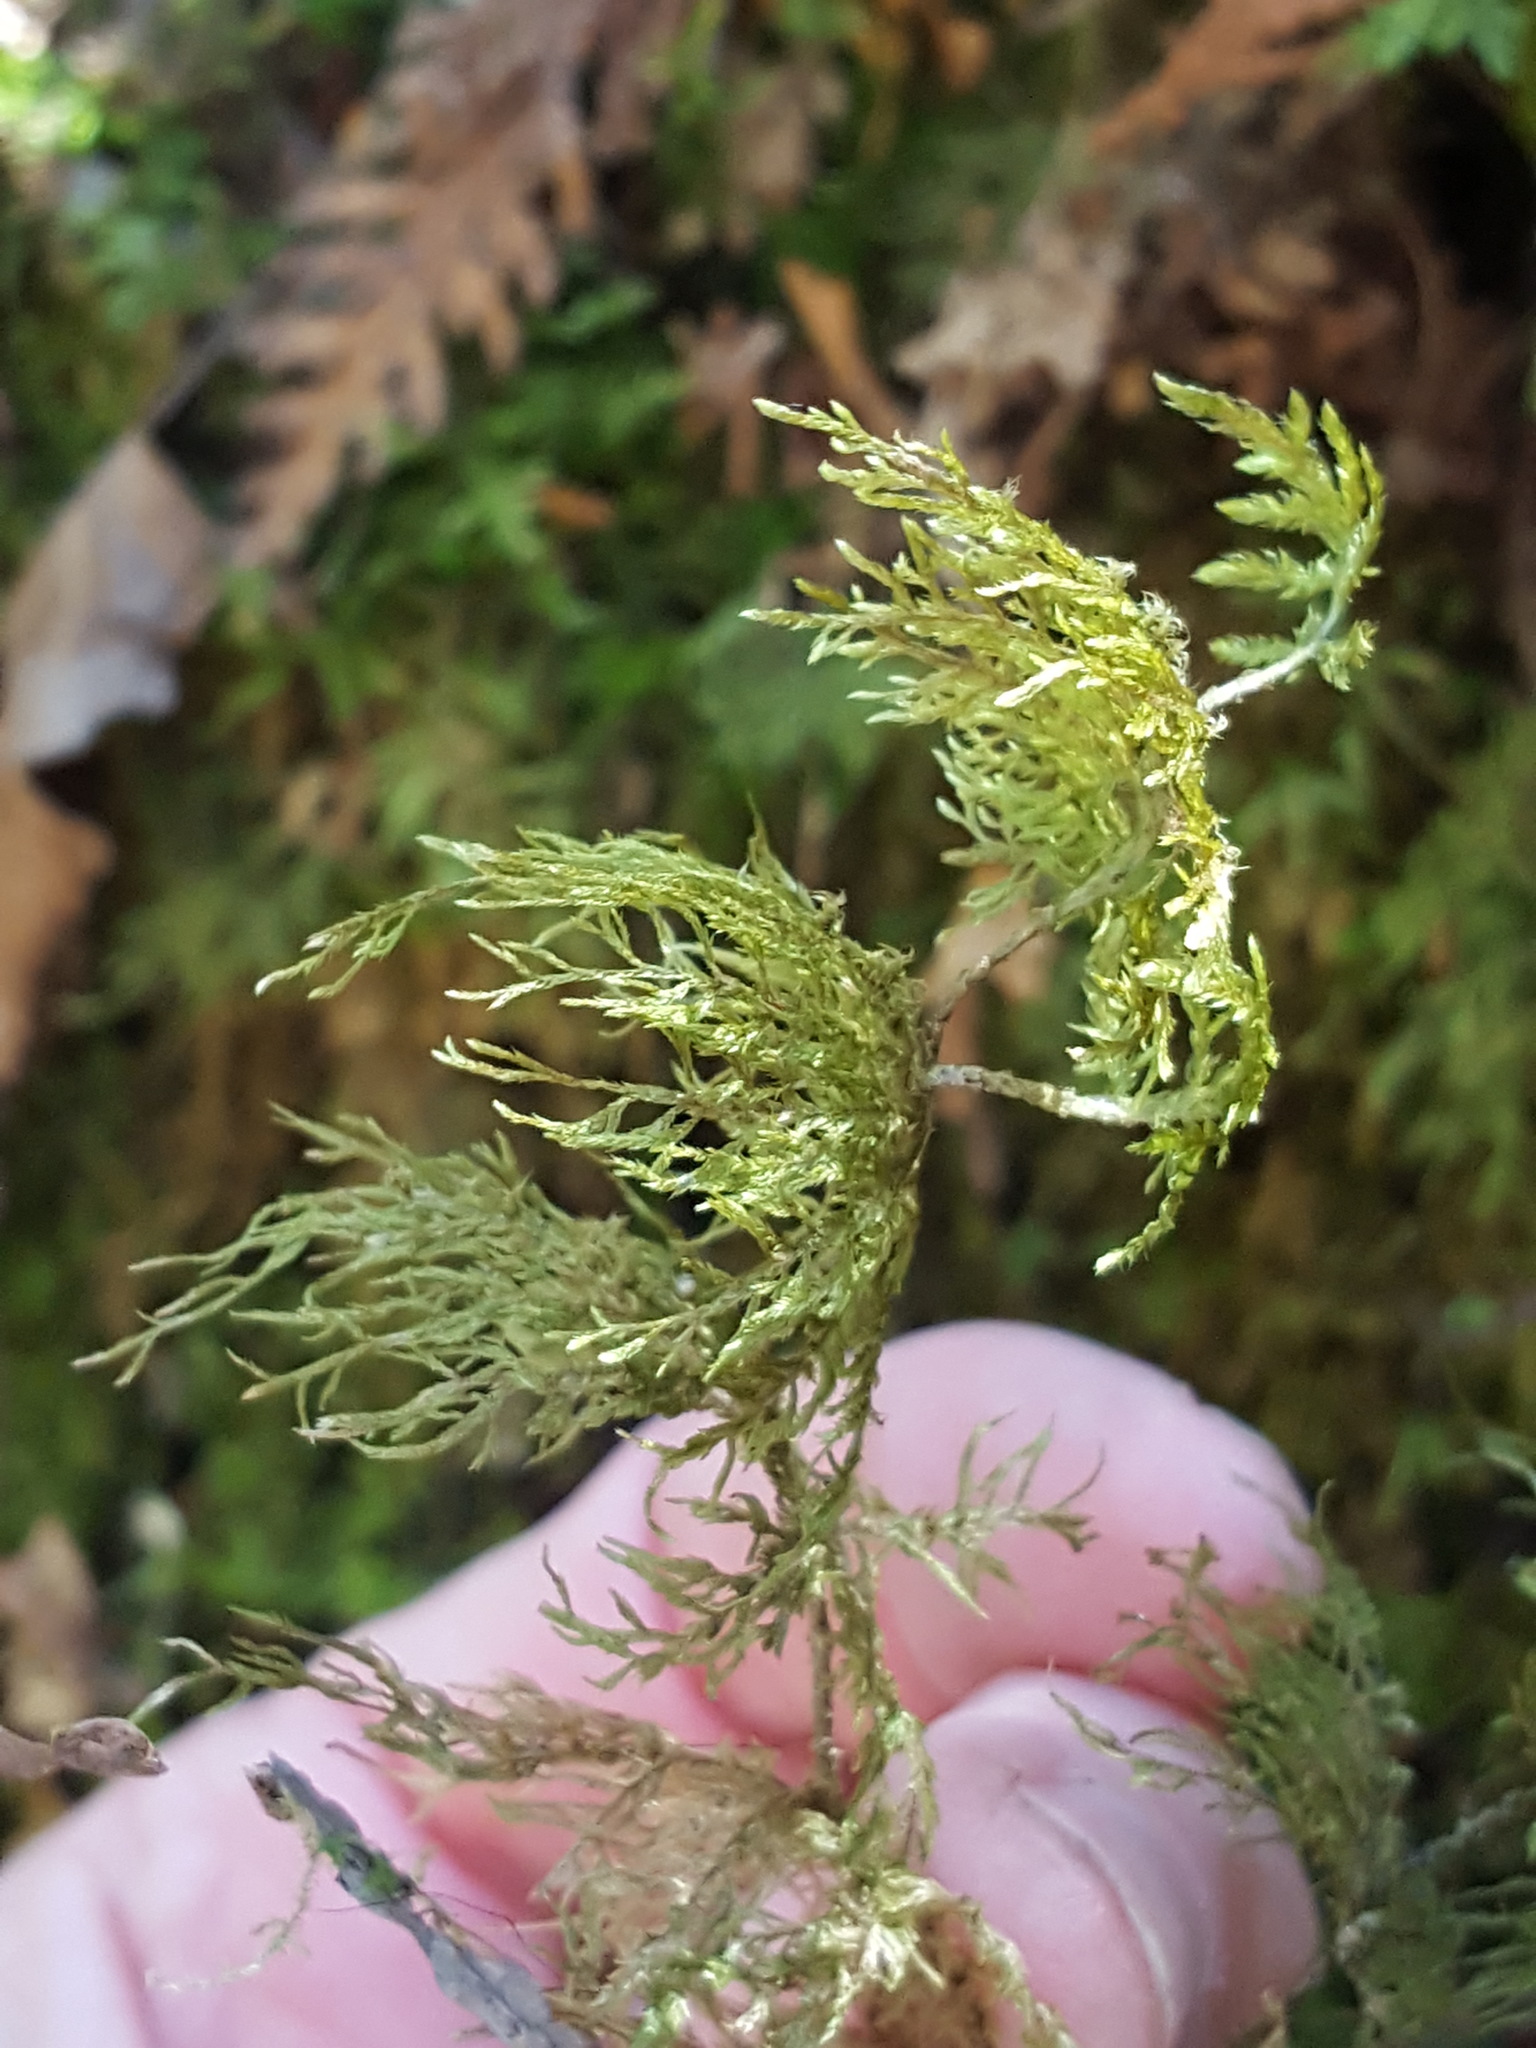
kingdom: Plantae
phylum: Bryophyta
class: Bryopsida
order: Hypnales
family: Hylocomiaceae
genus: Hylocomium
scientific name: Hylocomium splendens
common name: Stairstep moss
